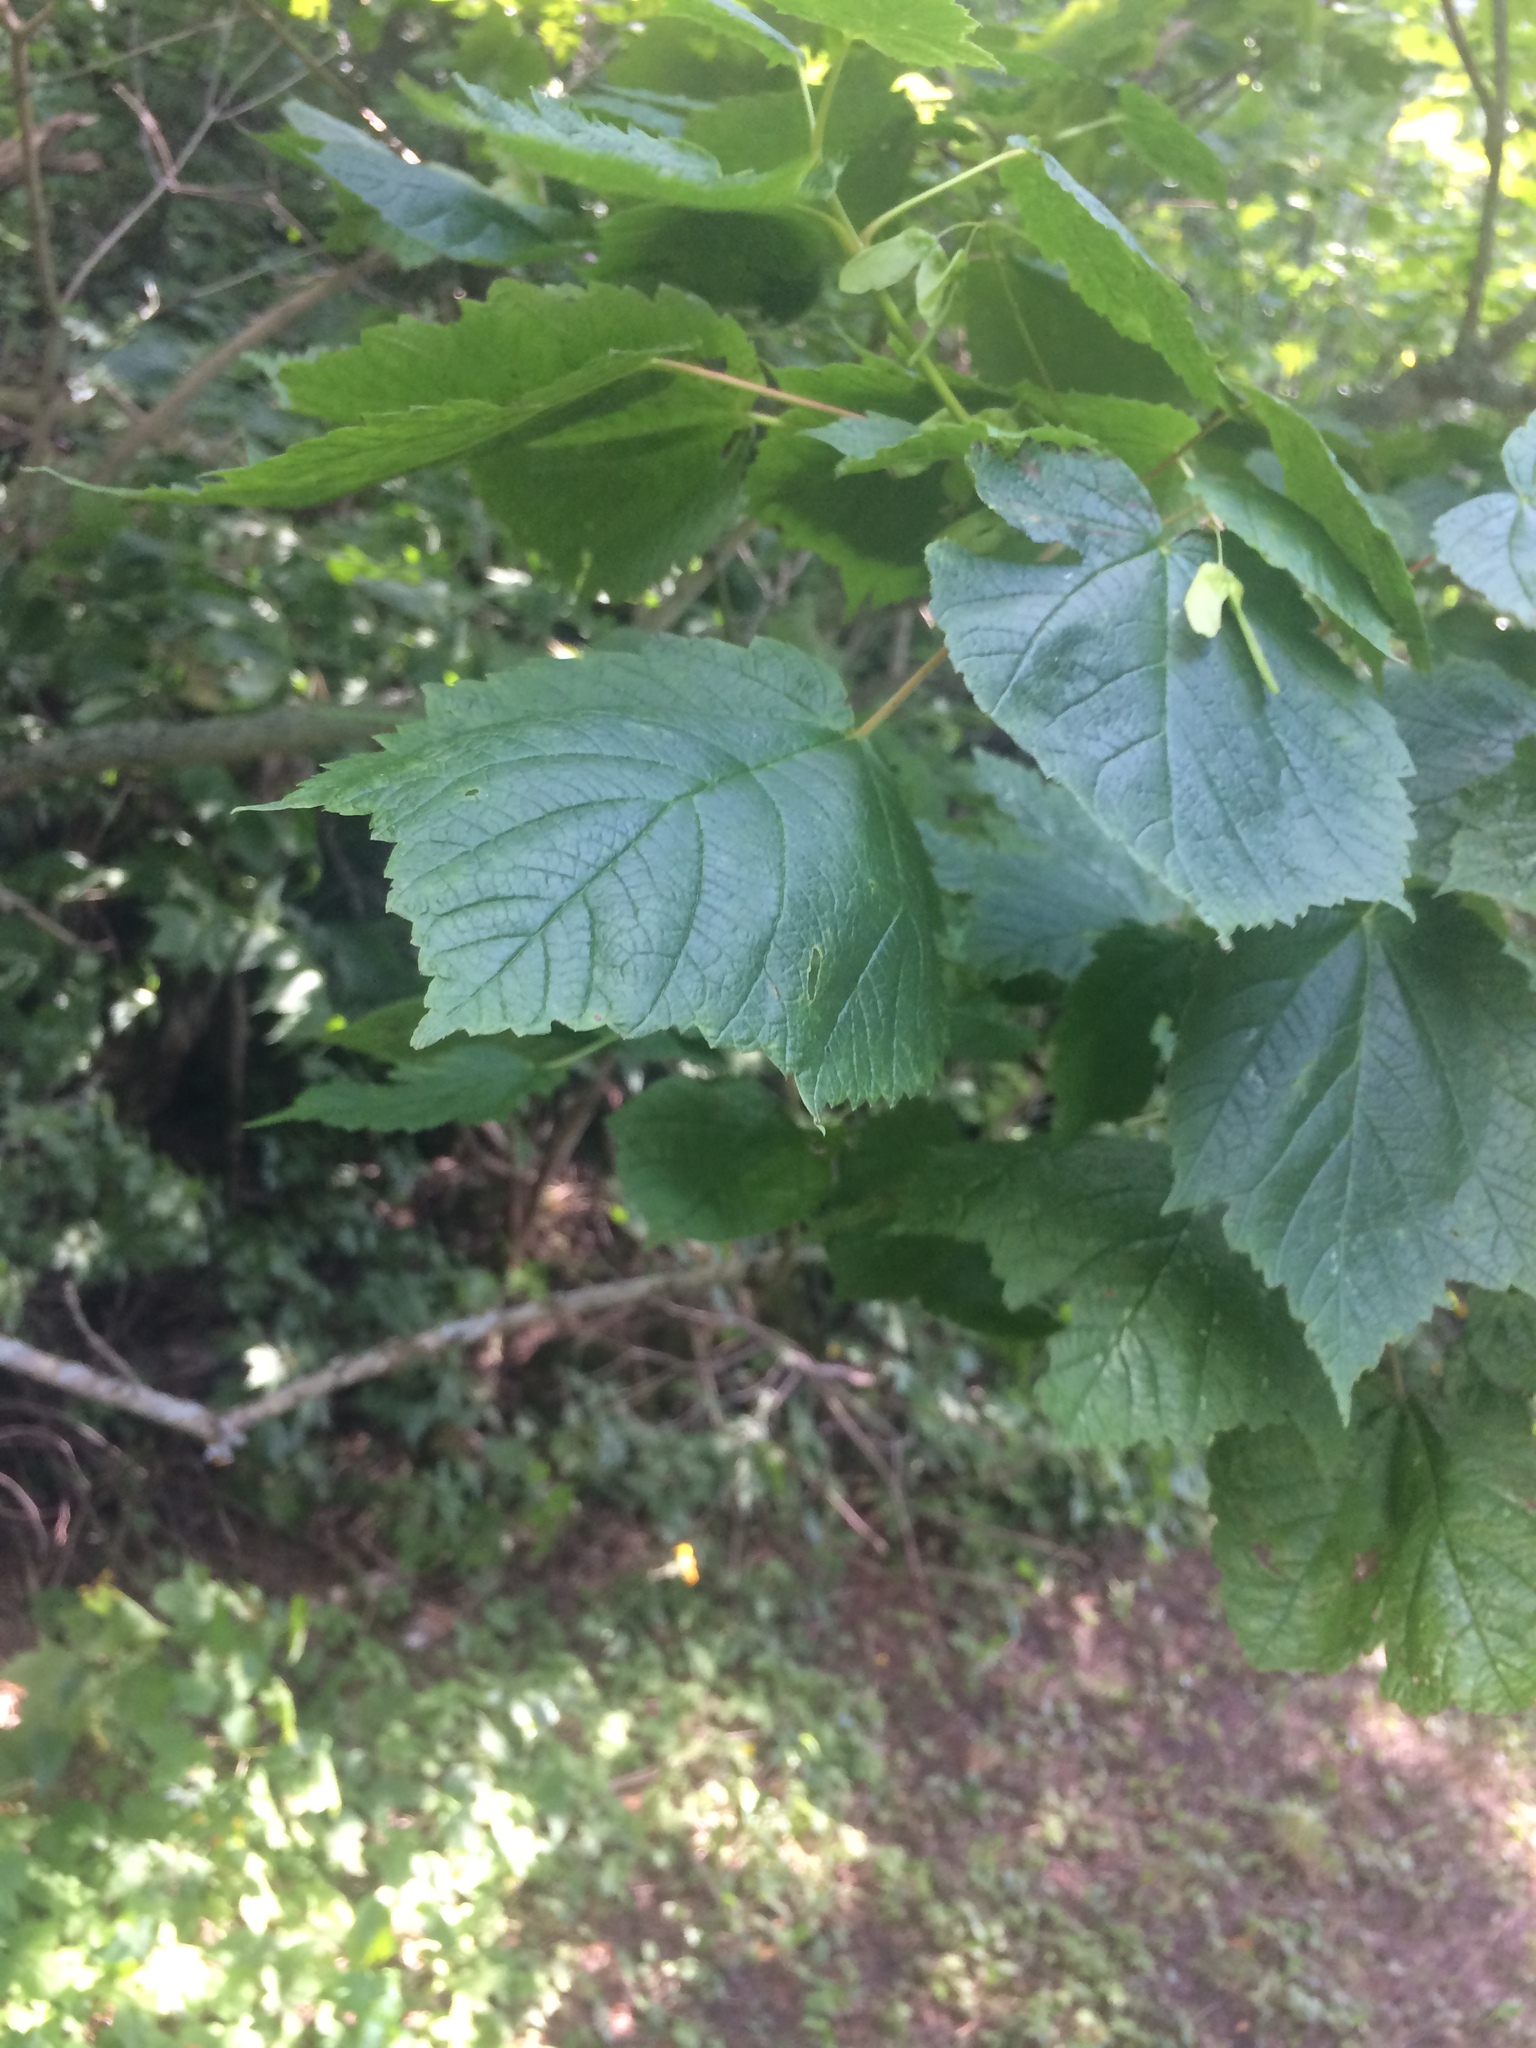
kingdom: Plantae
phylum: Tracheophyta
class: Magnoliopsida
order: Sapindales
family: Sapindaceae
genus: Acer
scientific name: Acer spicatum
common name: Mountain maple
